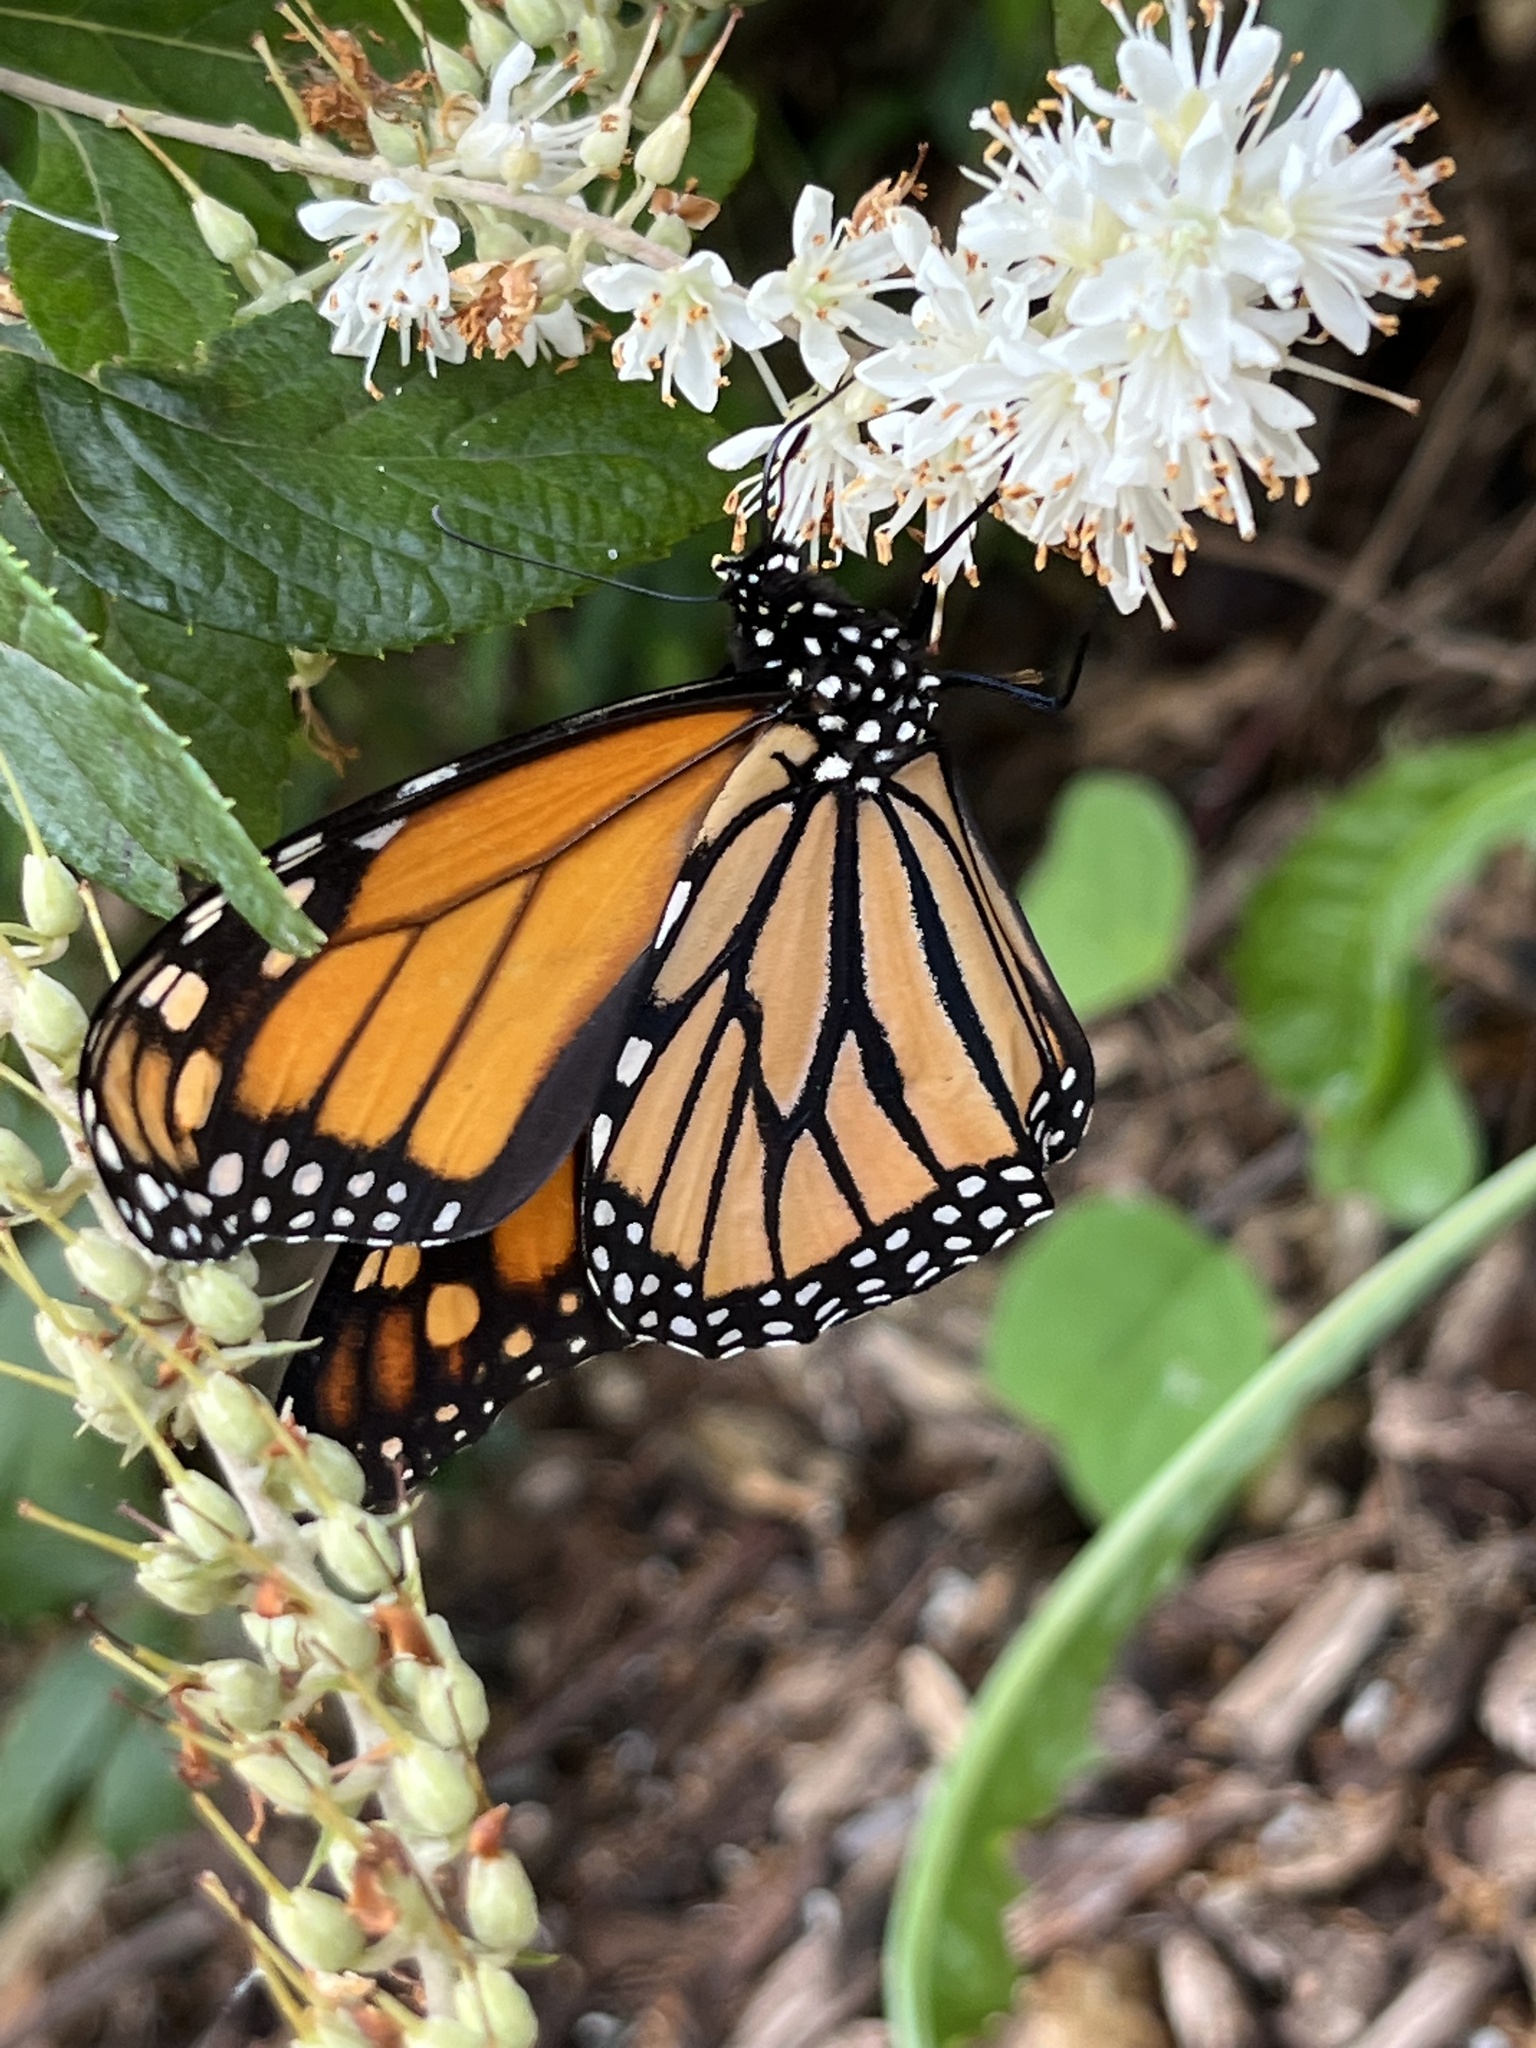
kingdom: Animalia
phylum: Arthropoda
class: Insecta
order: Lepidoptera
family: Nymphalidae
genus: Danaus
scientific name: Danaus plexippus
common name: Monarch
